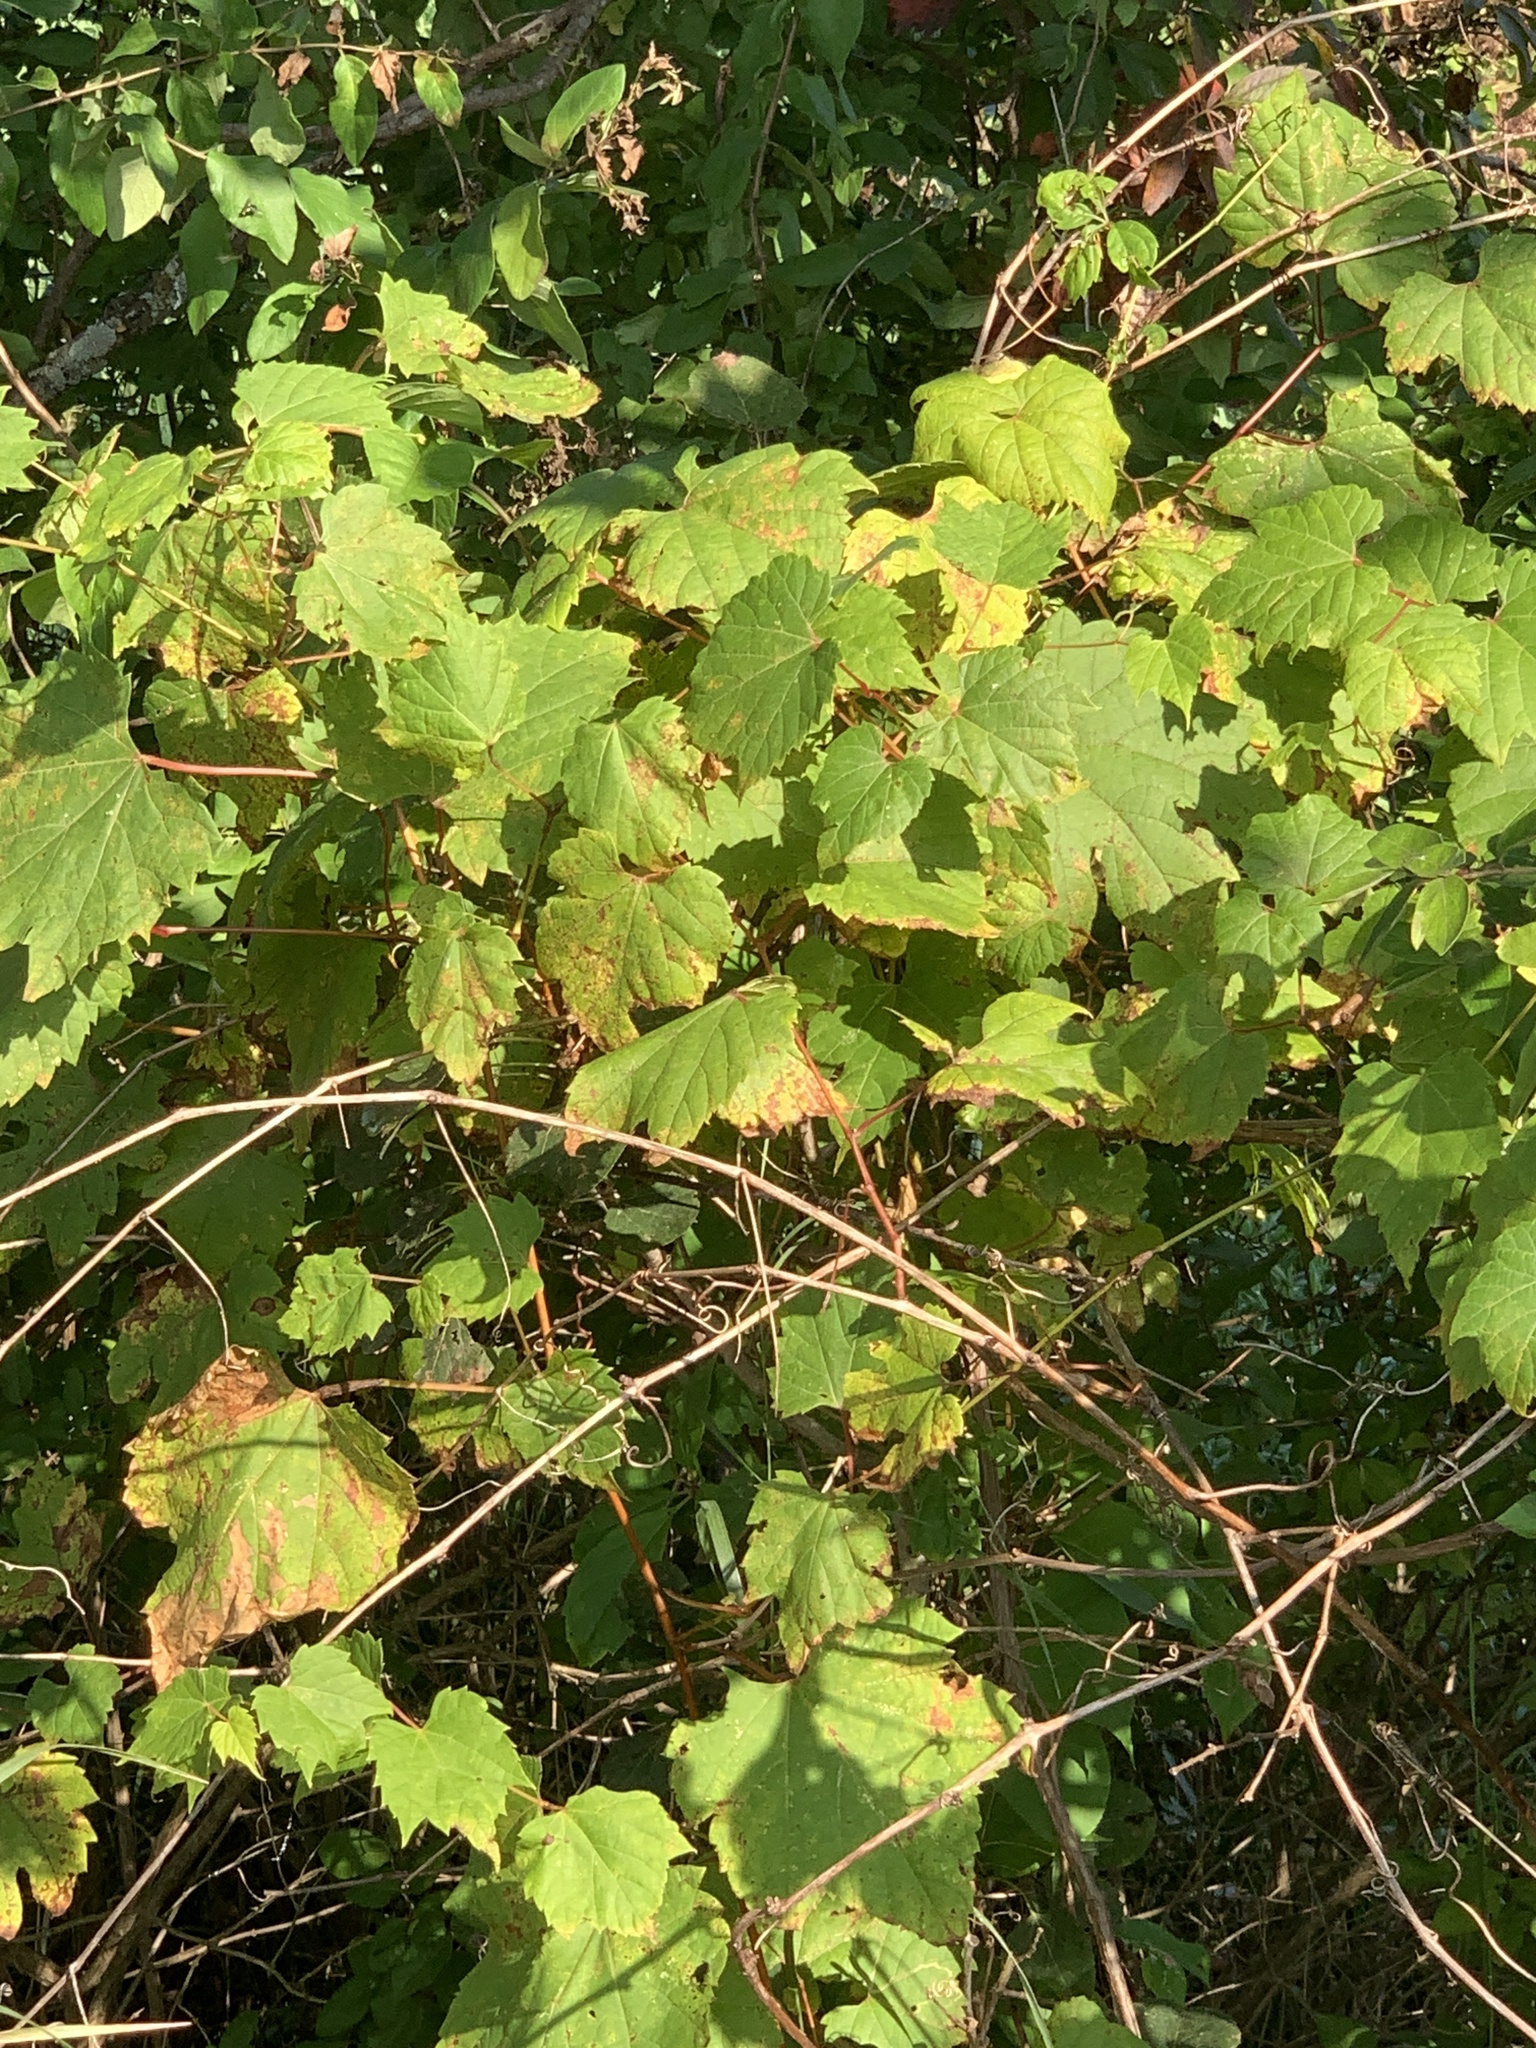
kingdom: Plantae
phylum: Tracheophyta
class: Magnoliopsida
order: Vitales
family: Vitaceae
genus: Vitis
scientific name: Vitis riparia
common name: Frost grape
